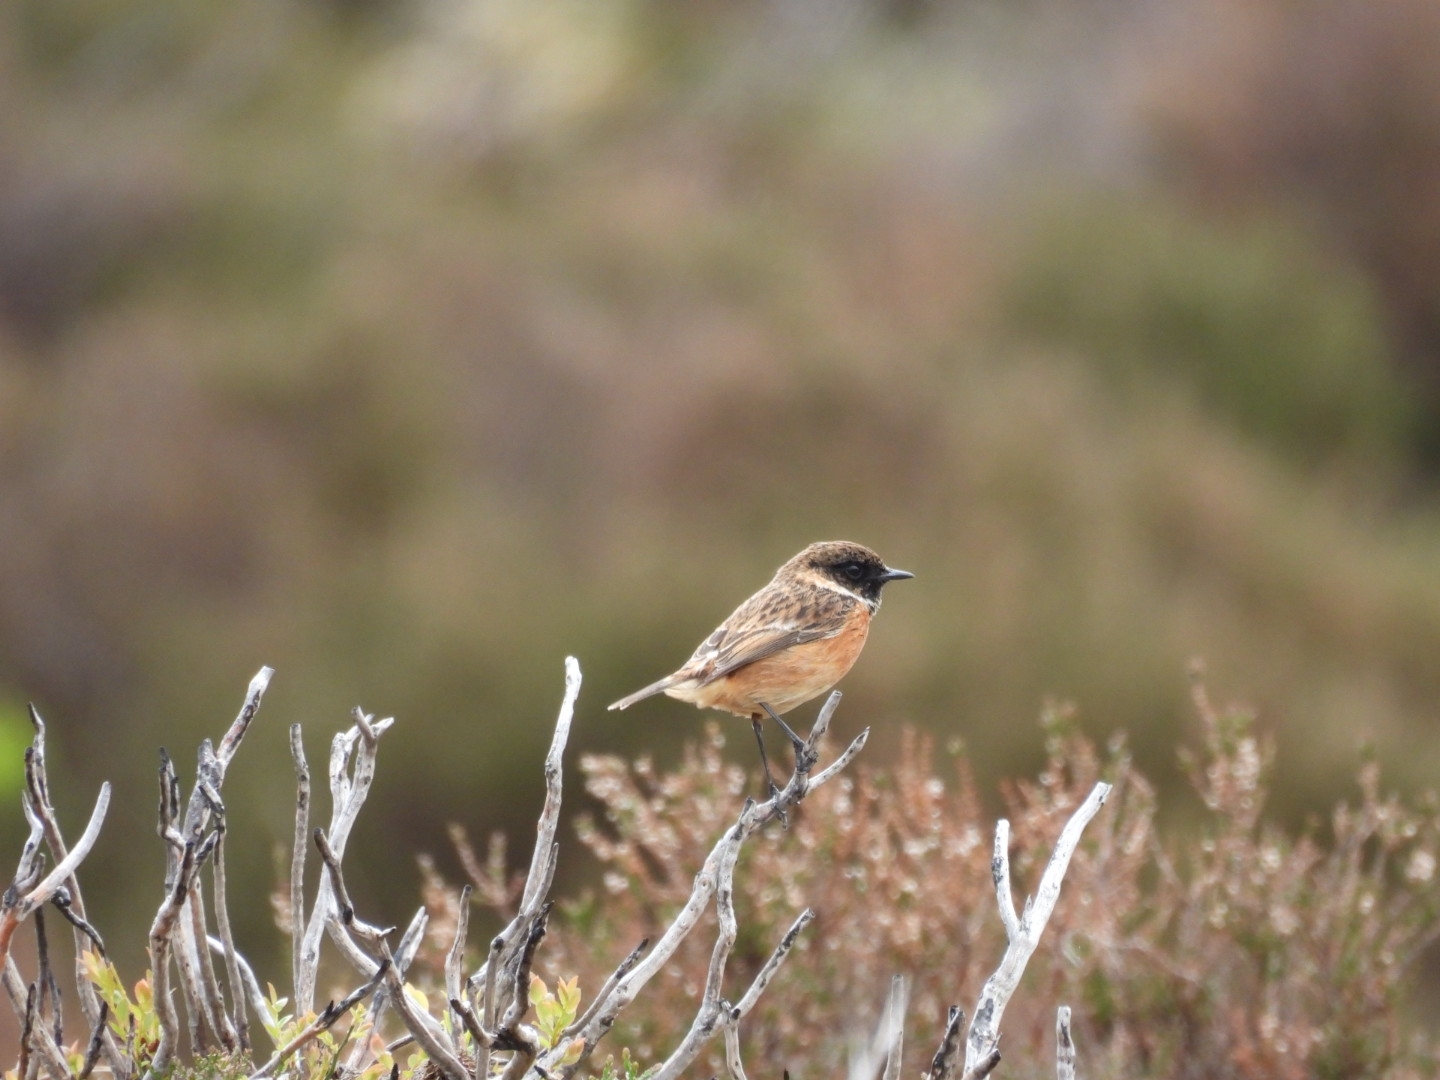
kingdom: Animalia
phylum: Chordata
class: Aves
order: Passeriformes
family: Muscicapidae
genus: Saxicola
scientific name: Saxicola rubicola
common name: European stonechat
